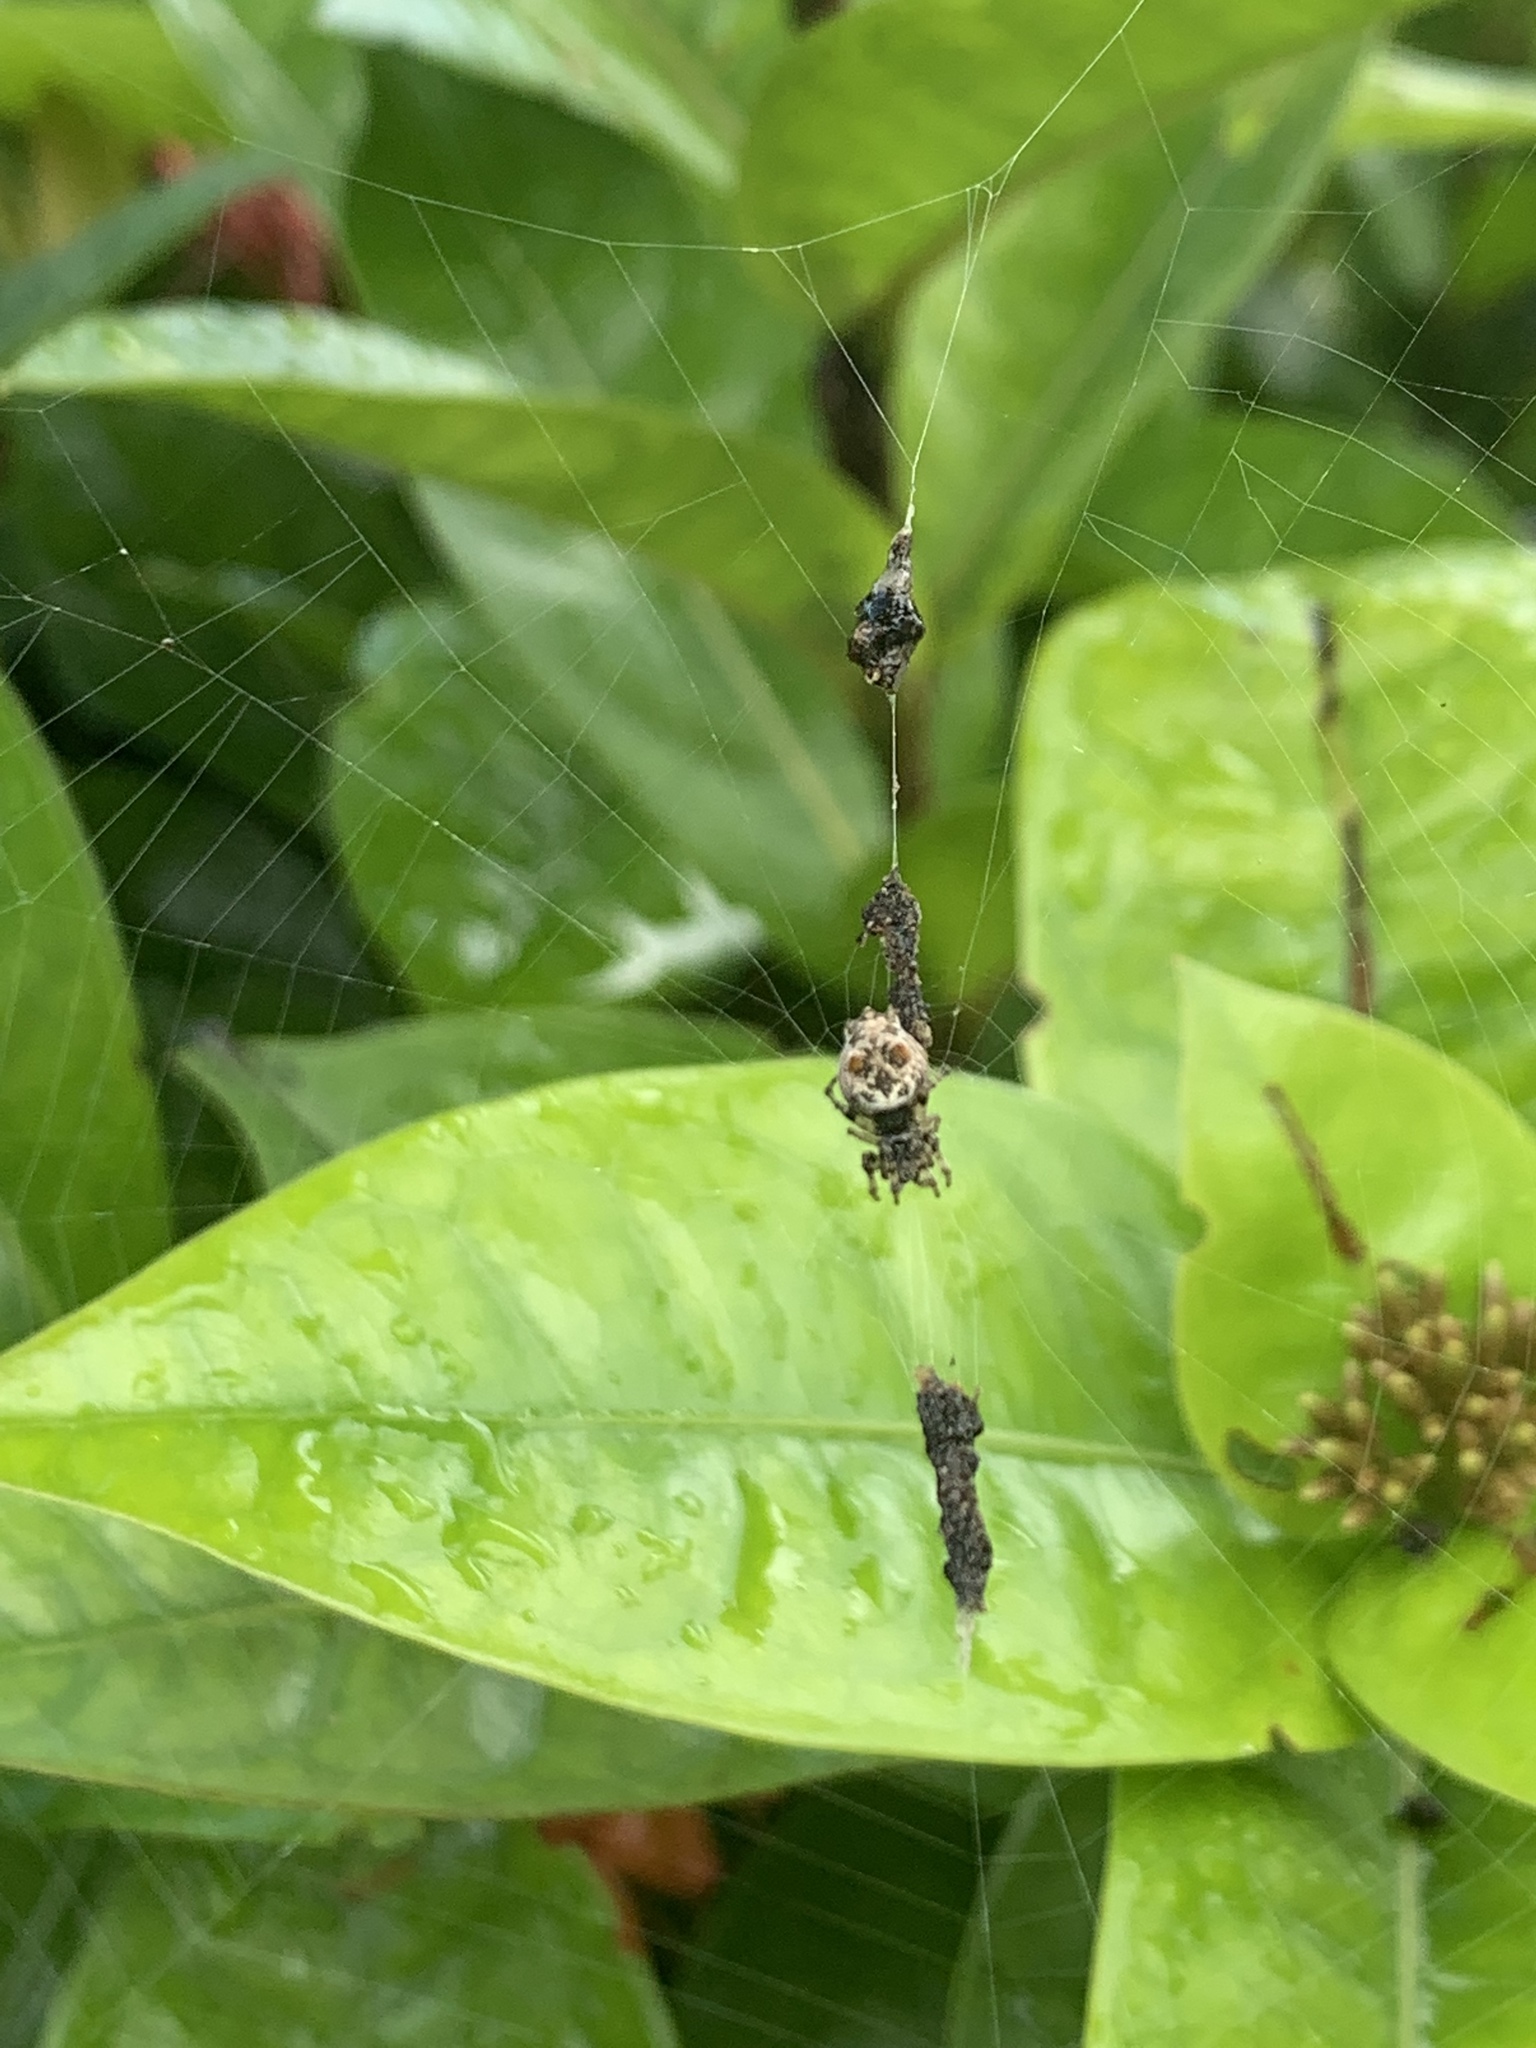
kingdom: Animalia
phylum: Arthropoda
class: Arachnida
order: Araneae
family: Araneidae
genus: Cyclosa
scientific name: Cyclosa walckenaeri
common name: Orb weavers
